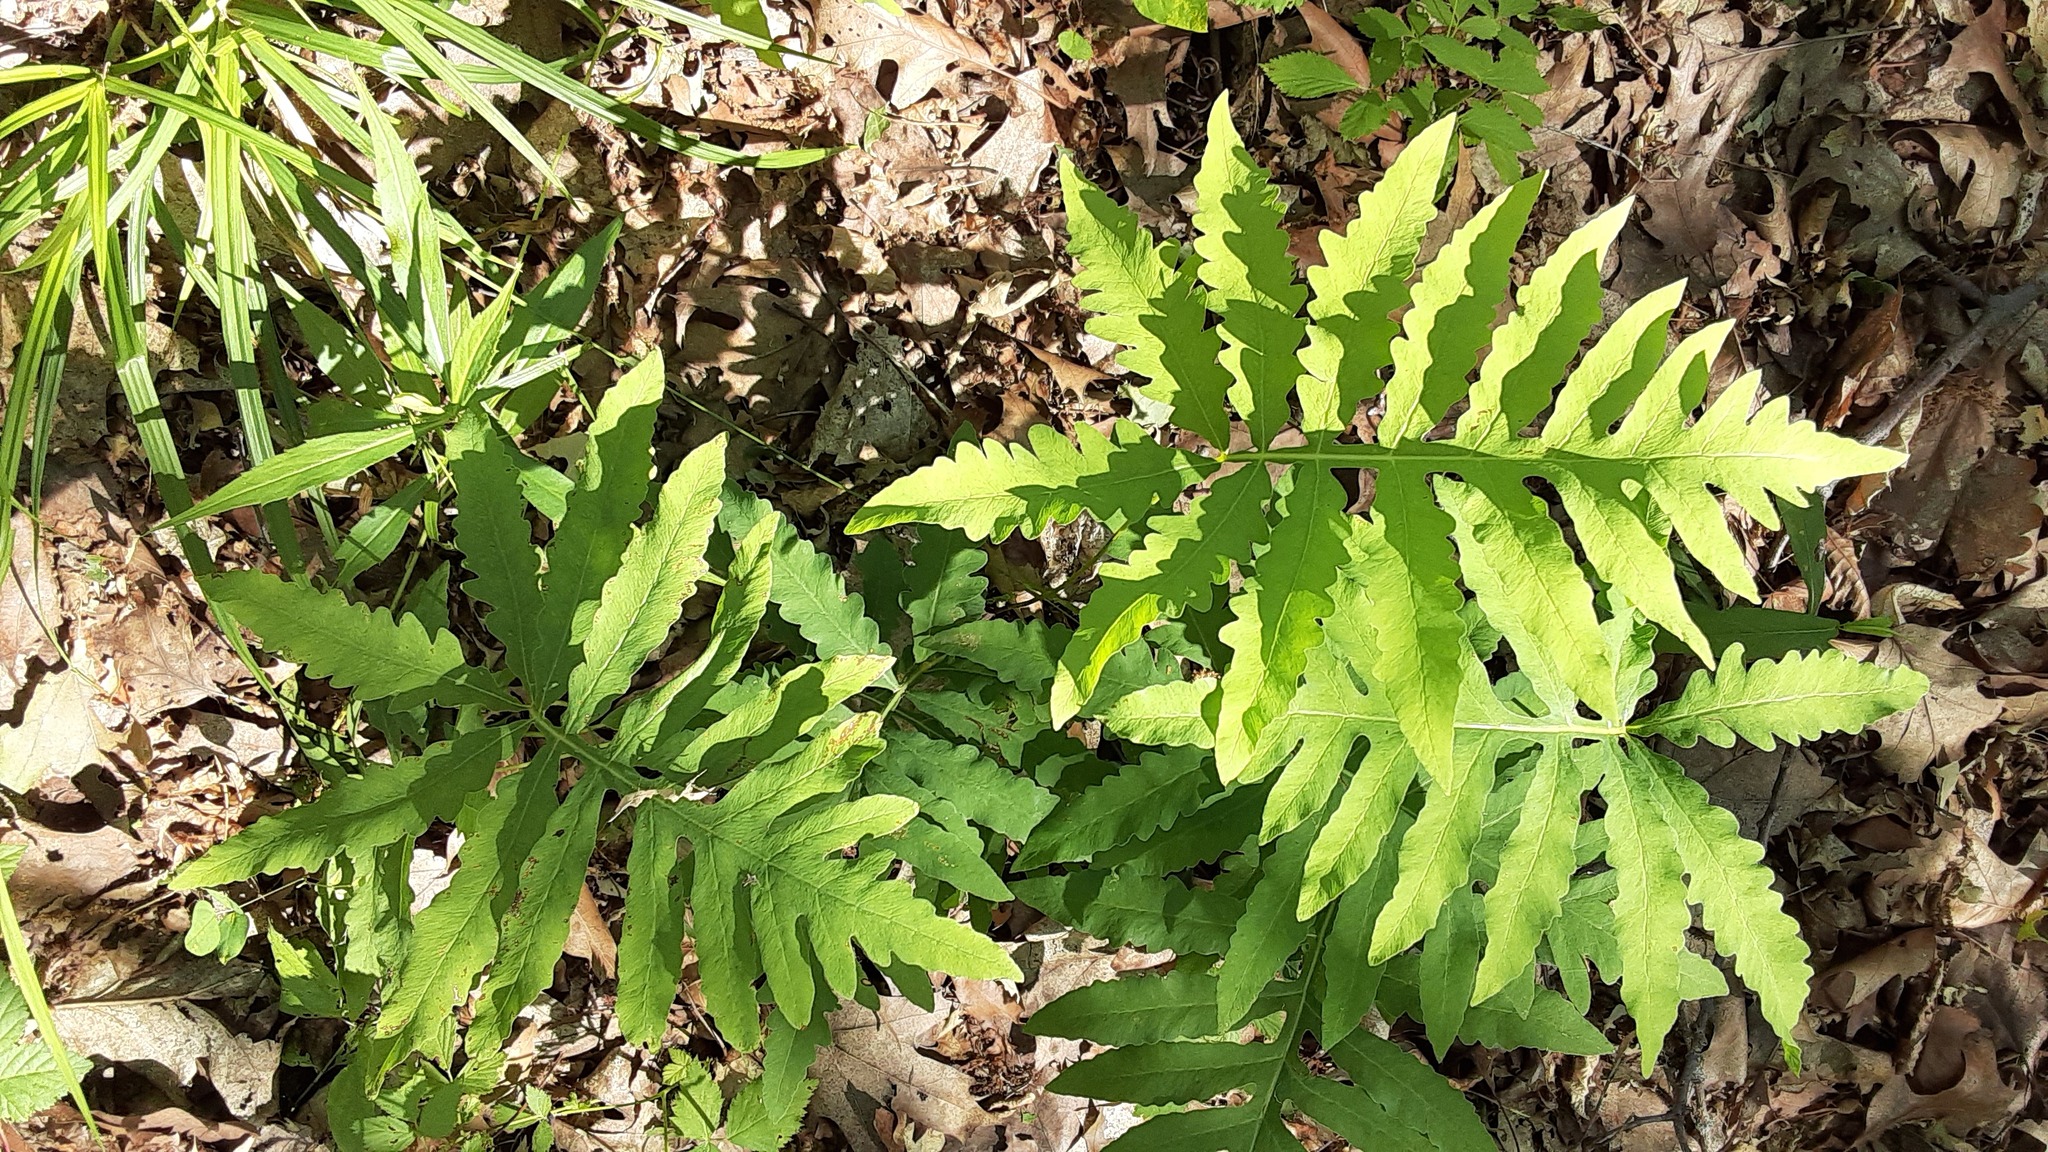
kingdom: Plantae
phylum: Tracheophyta
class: Polypodiopsida
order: Polypodiales
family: Onocleaceae
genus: Onoclea
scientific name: Onoclea sensibilis
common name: Sensitive fern
